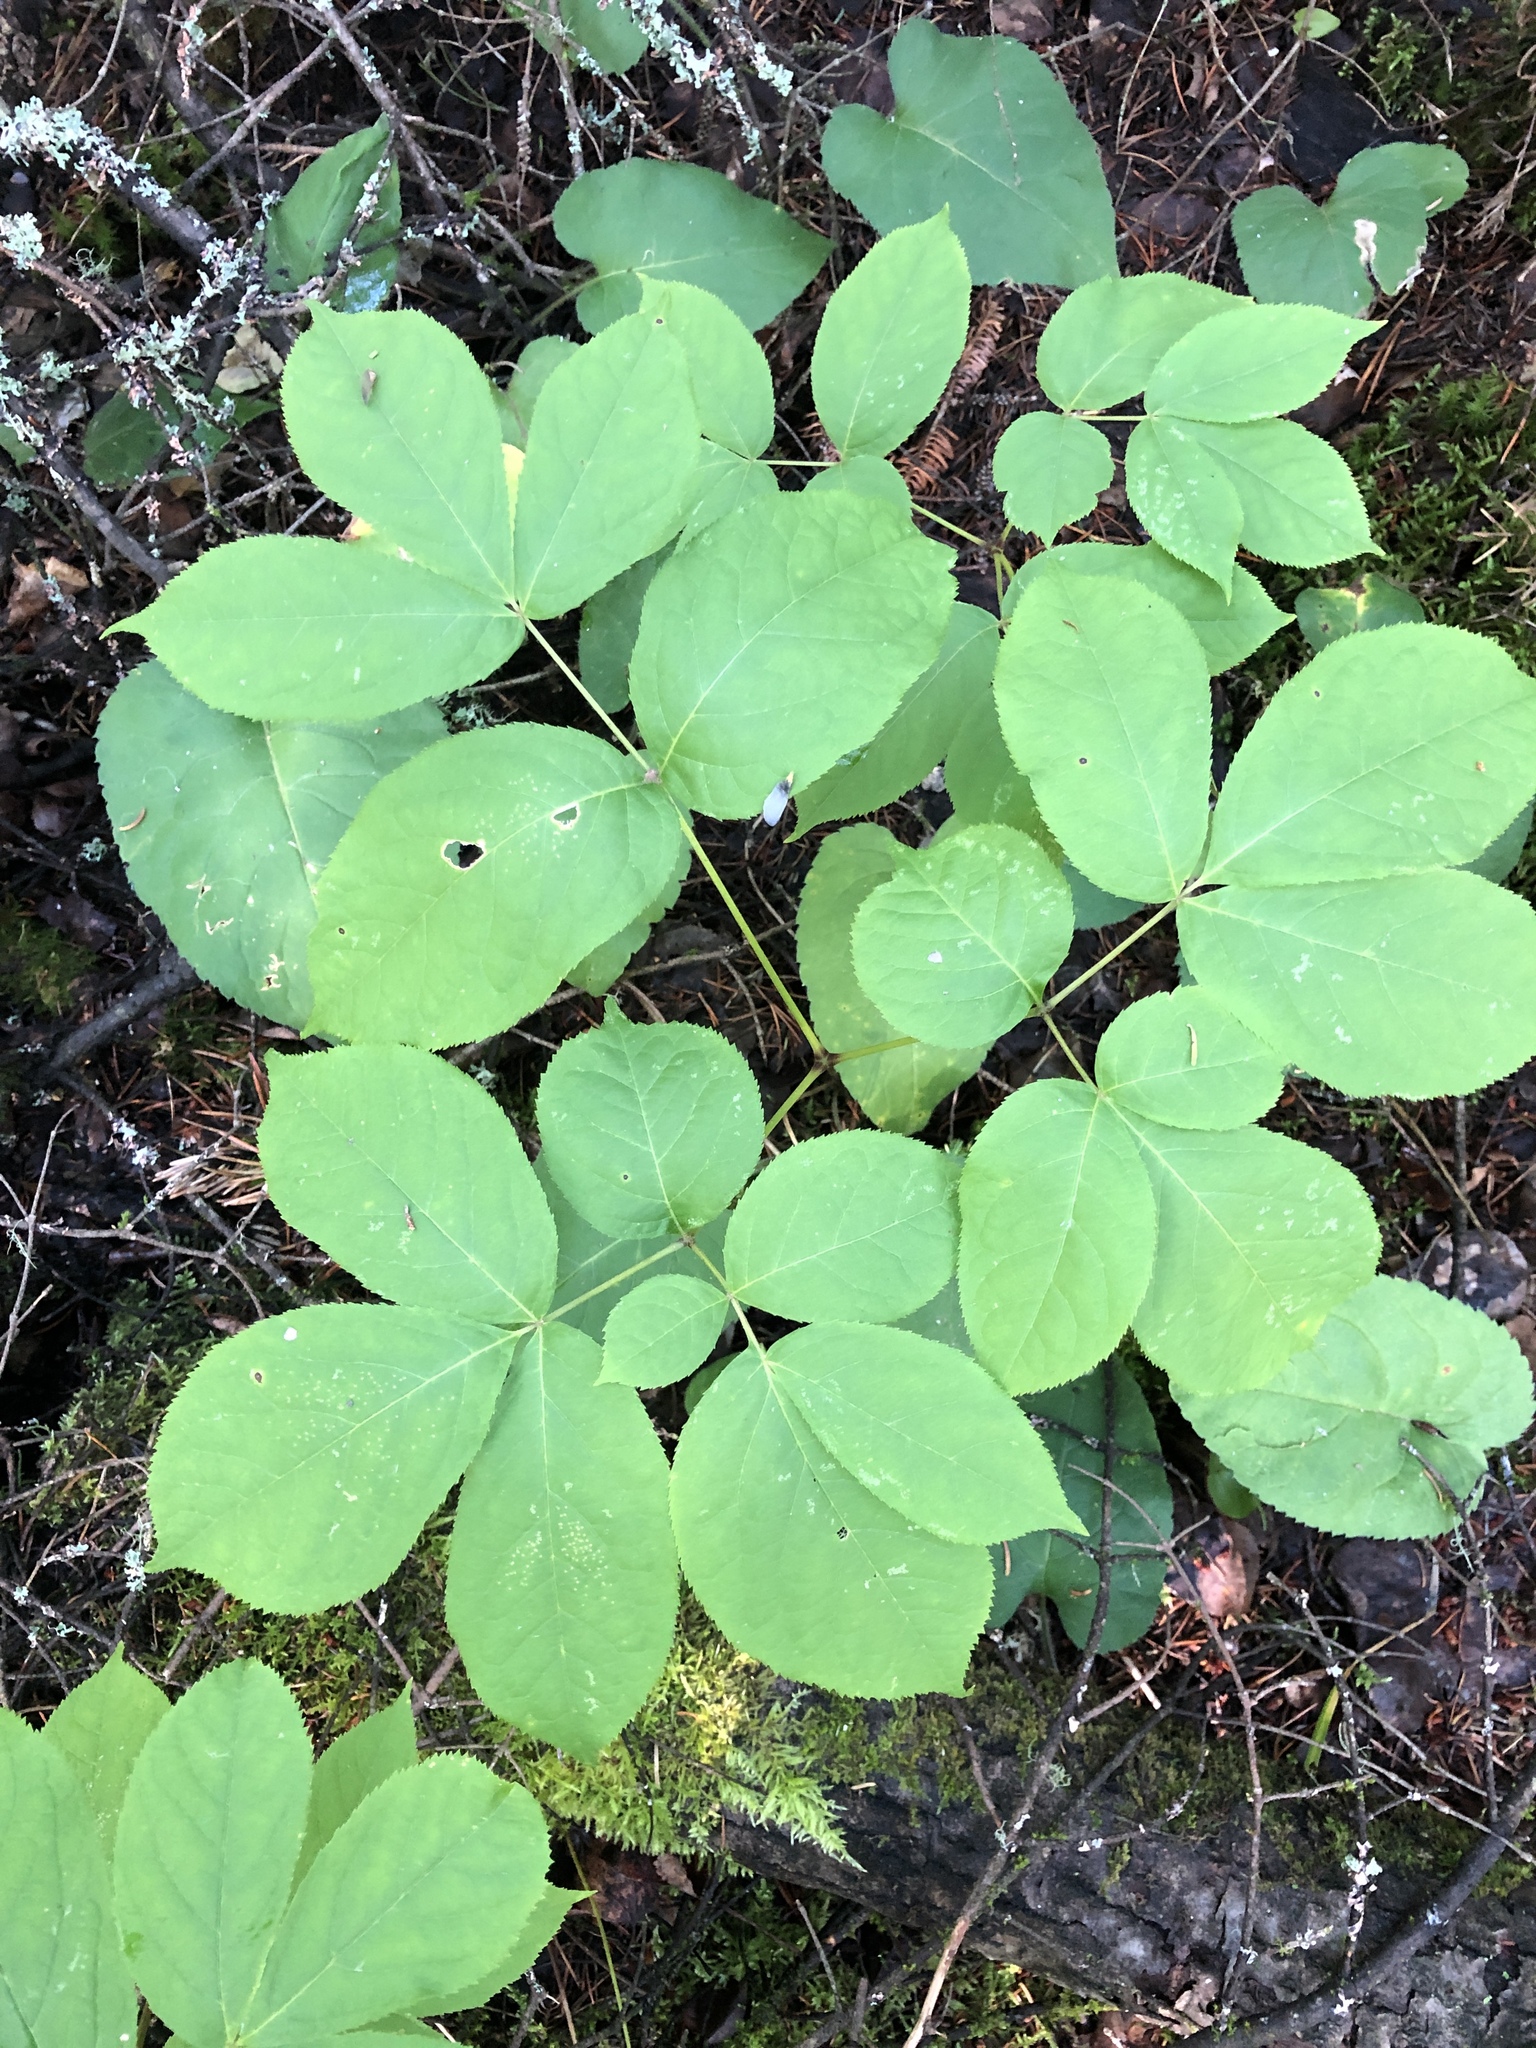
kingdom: Plantae
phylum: Tracheophyta
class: Magnoliopsida
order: Apiales
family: Araliaceae
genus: Aralia
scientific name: Aralia nudicaulis
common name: Wild sarsaparilla
